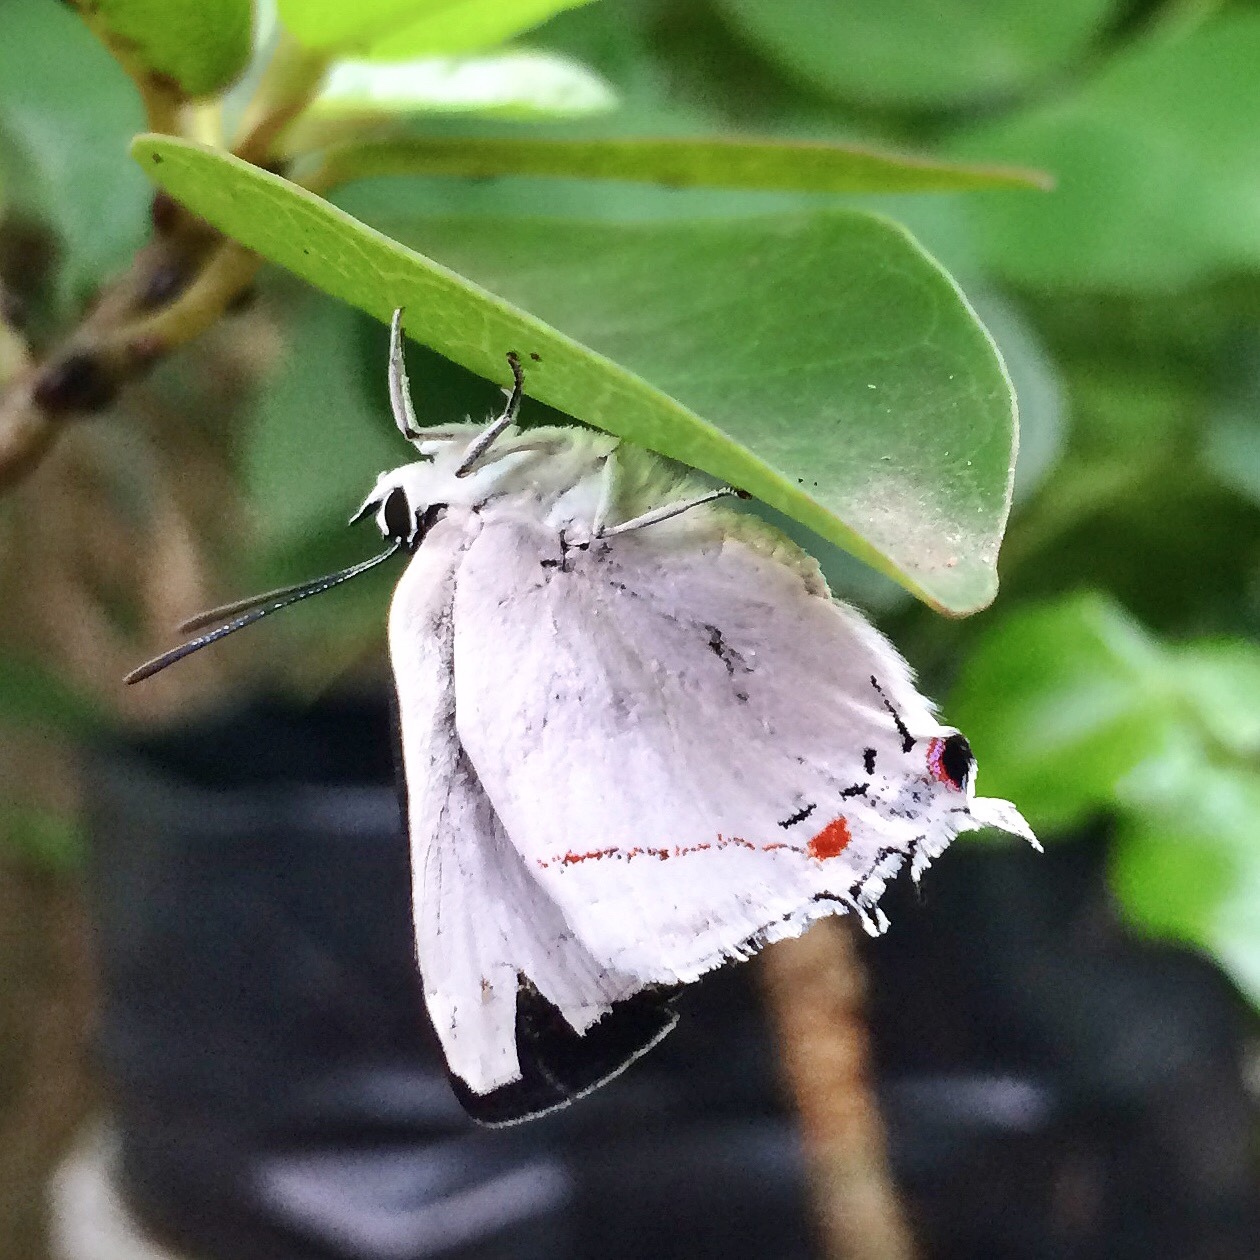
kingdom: Animalia
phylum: Arthropoda
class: Insecta
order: Lepidoptera
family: Lycaenidae
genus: Argiolaus
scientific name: Argiolaus silas
